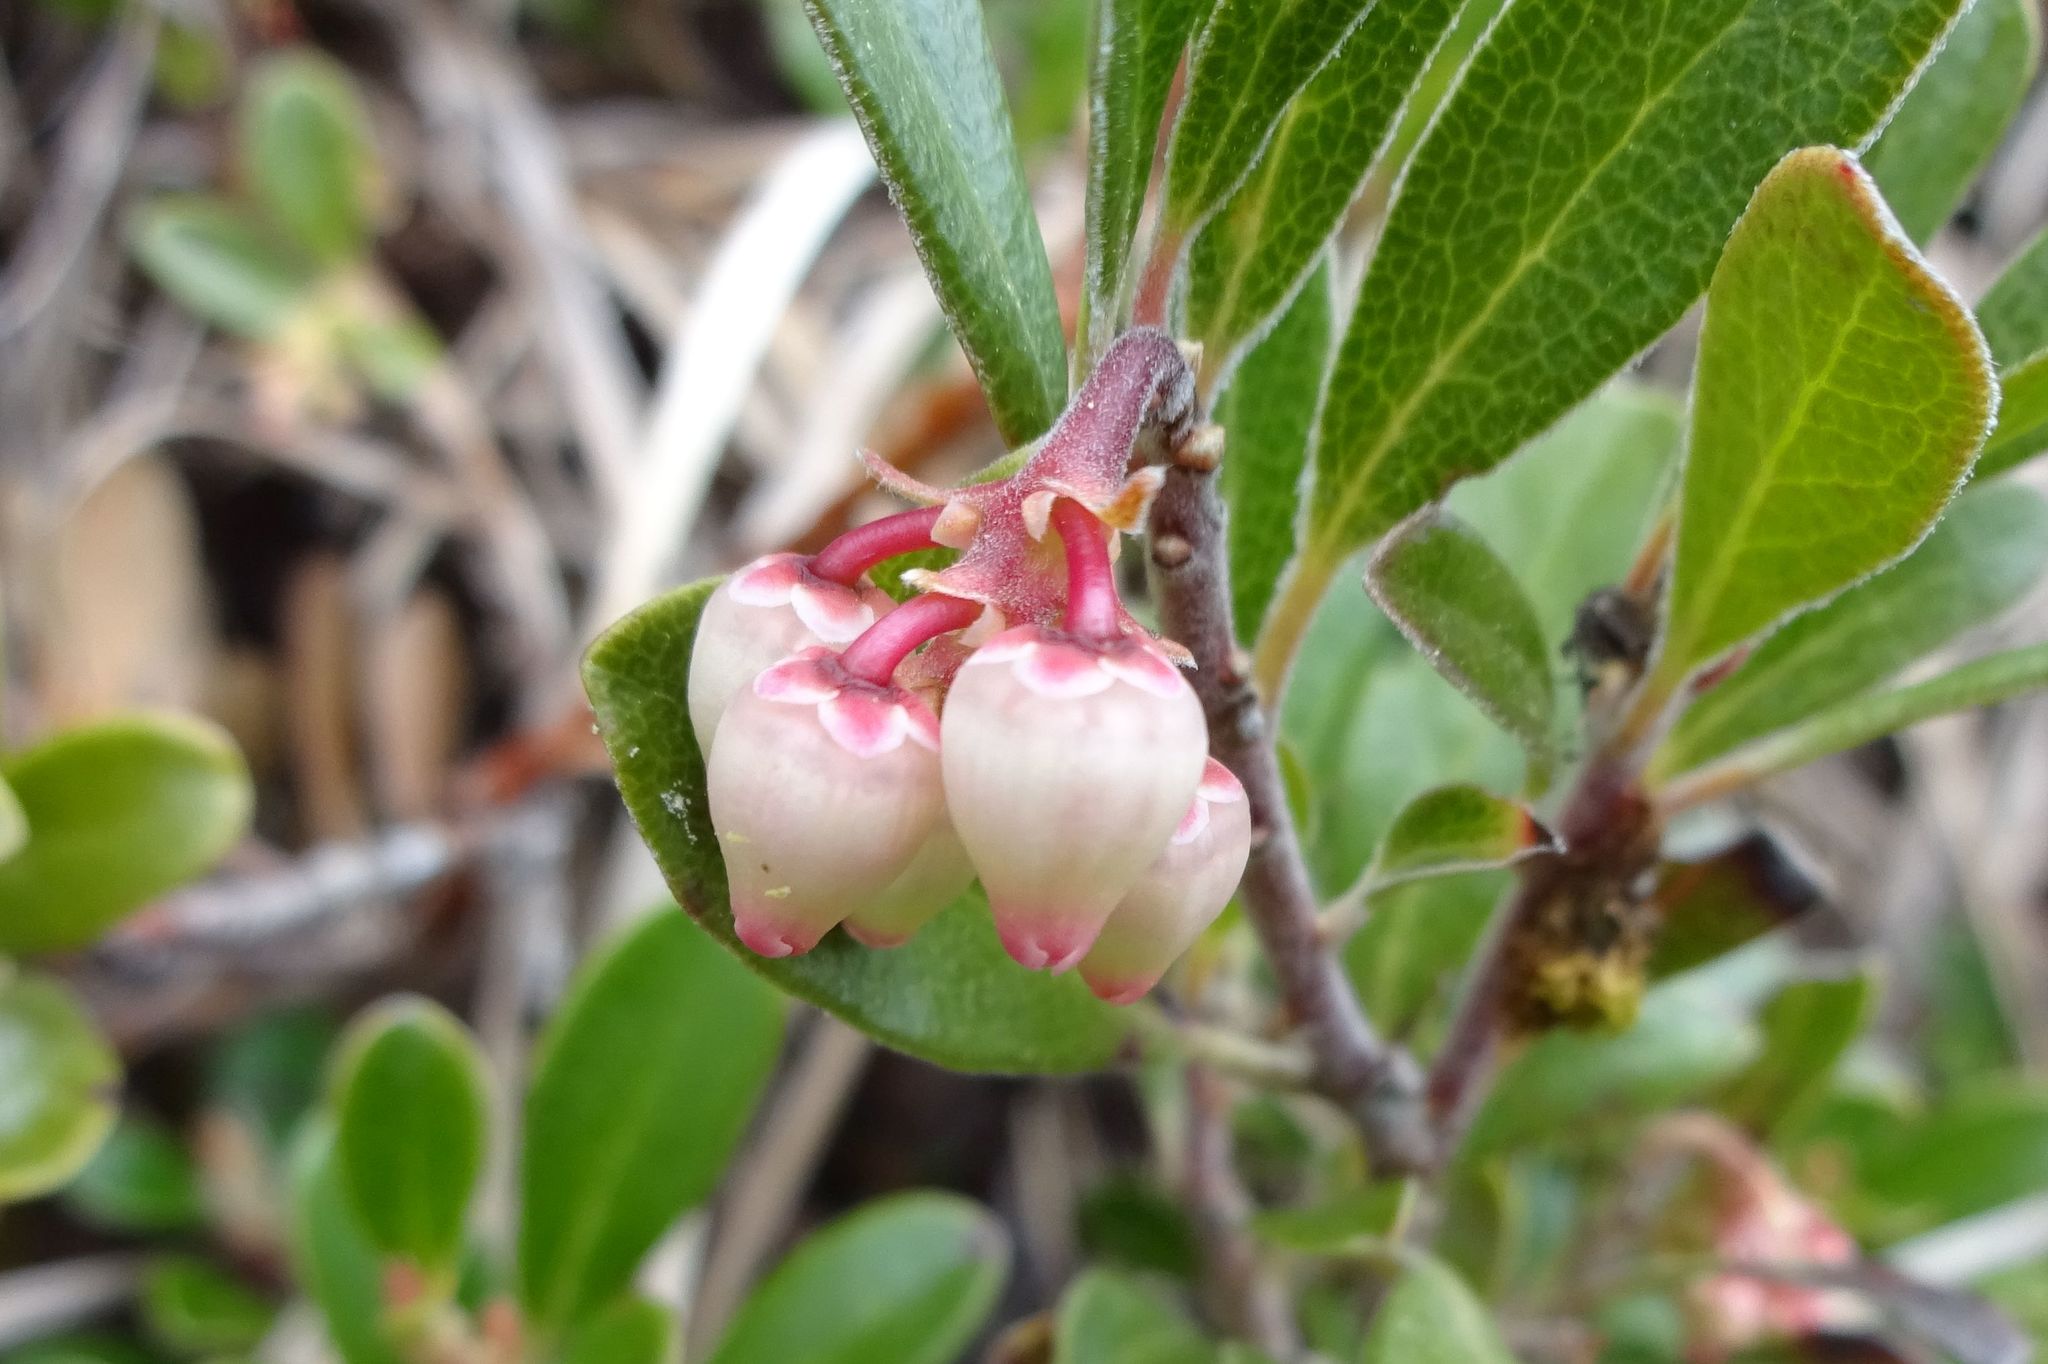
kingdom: Plantae
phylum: Tracheophyta
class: Magnoliopsida
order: Ericales
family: Ericaceae
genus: Arctostaphylos
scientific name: Arctostaphylos uva-ursi
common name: Bearberry
